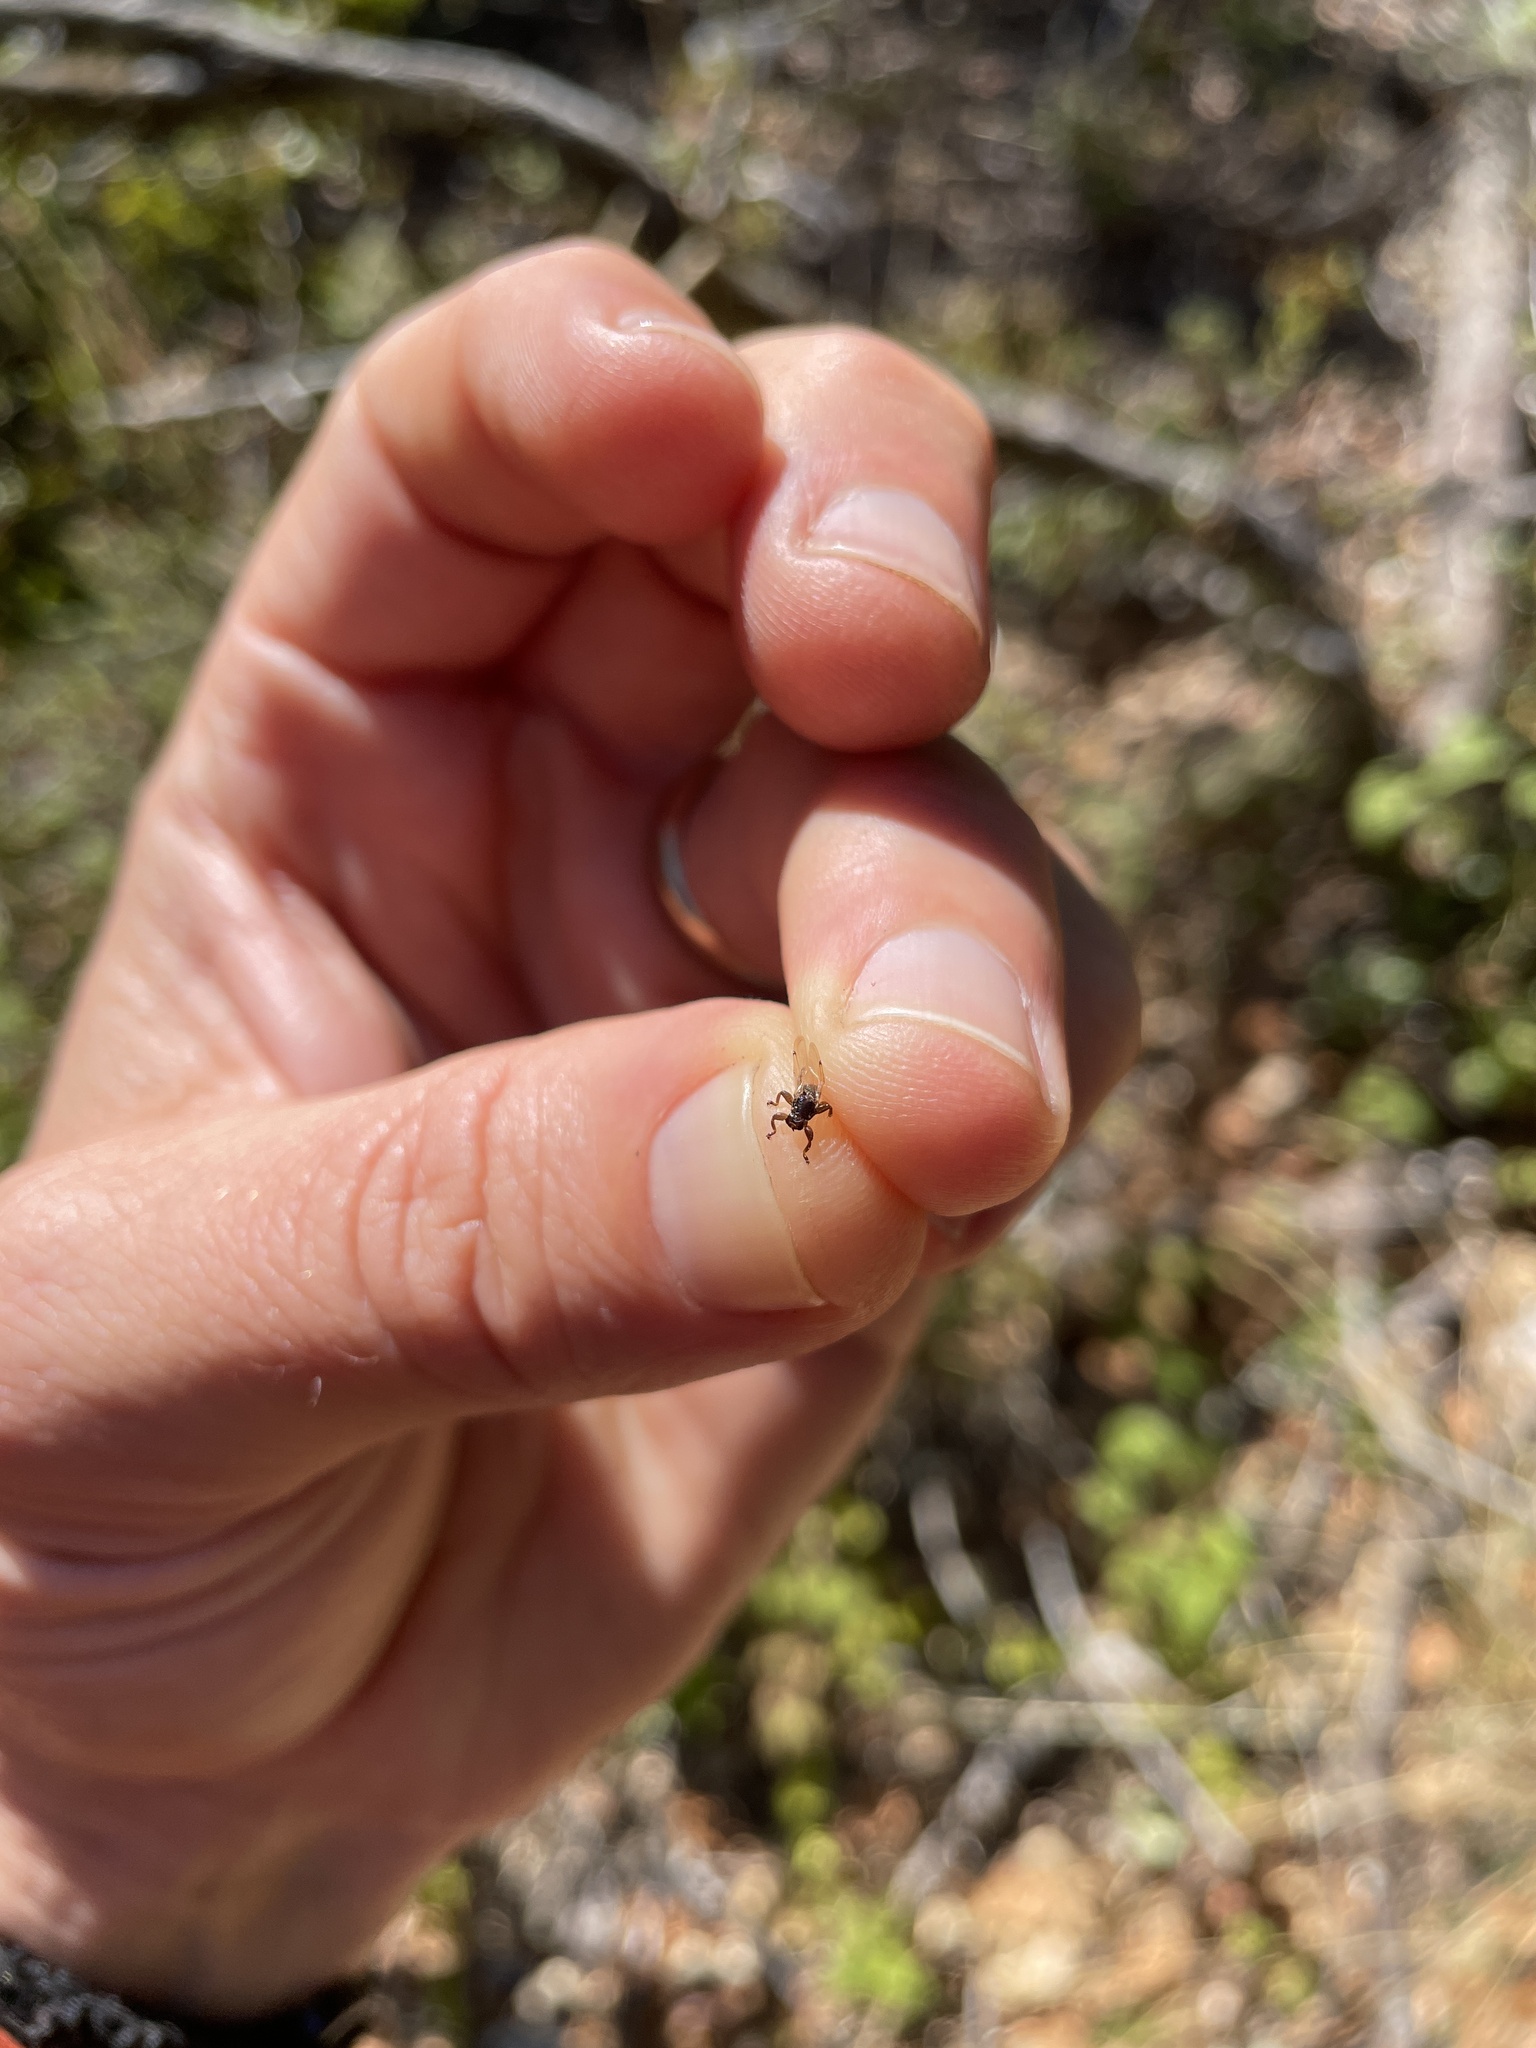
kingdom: Animalia
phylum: Arthropoda
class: Insecta
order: Diptera
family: Hippoboscidae
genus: Lipoptena
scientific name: Lipoptena depressa
